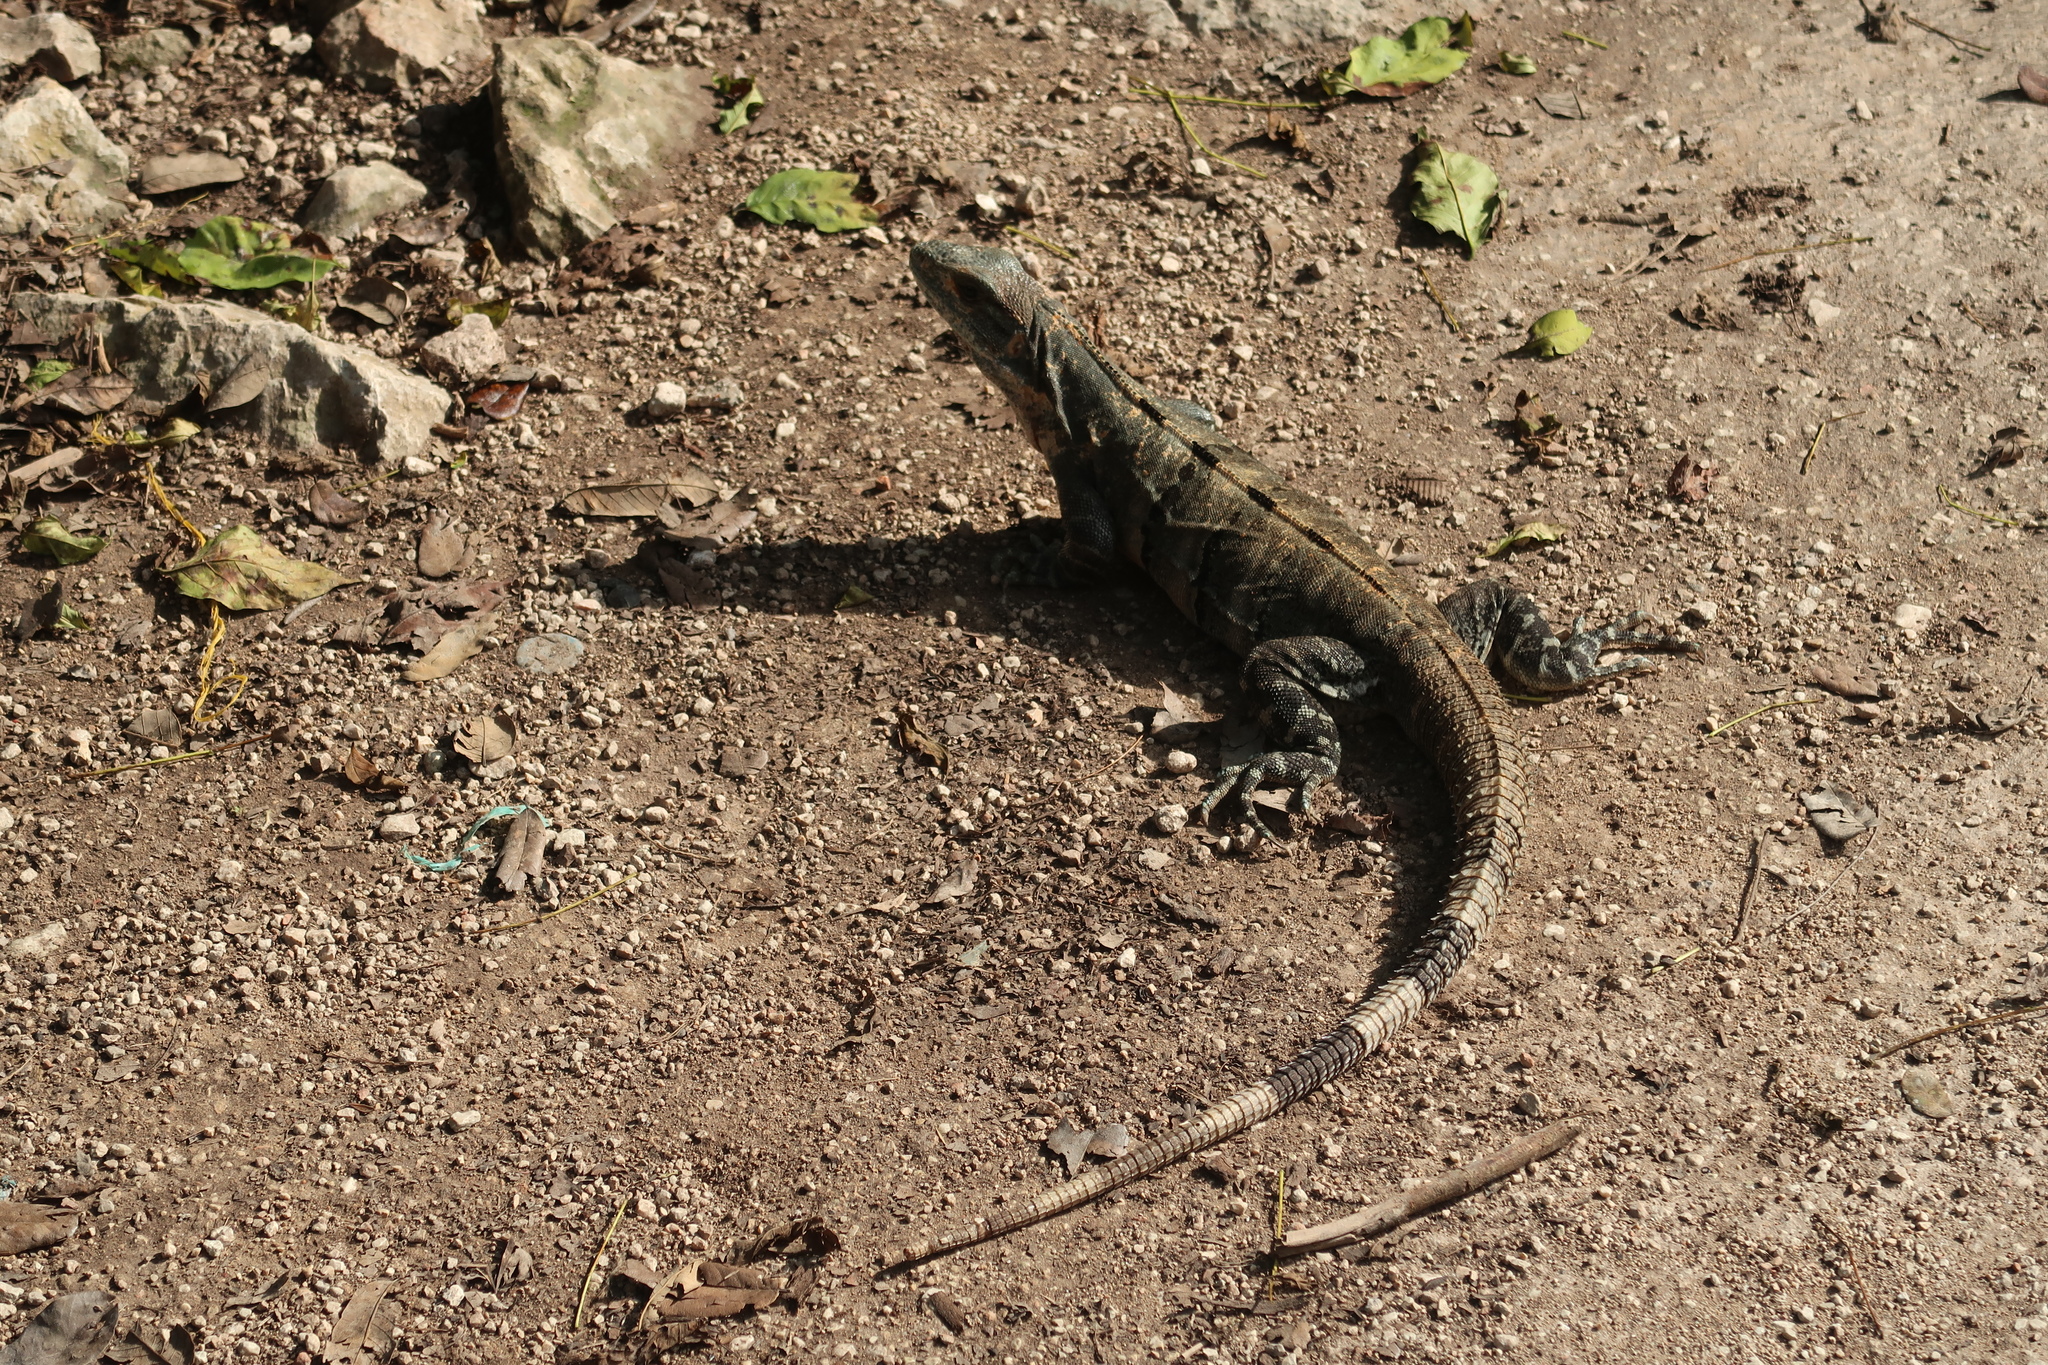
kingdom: Animalia
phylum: Chordata
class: Squamata
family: Iguanidae
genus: Ctenosaura
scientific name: Ctenosaura similis
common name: Black spiny-tailed iguana
